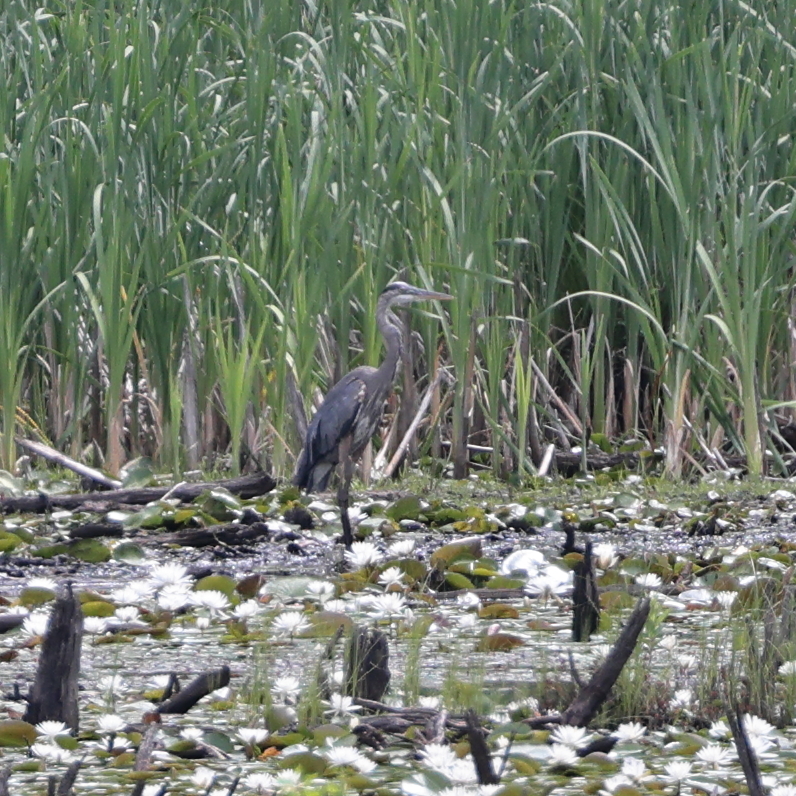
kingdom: Animalia
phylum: Chordata
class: Aves
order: Pelecaniformes
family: Ardeidae
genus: Ardea
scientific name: Ardea herodias
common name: Great blue heron
